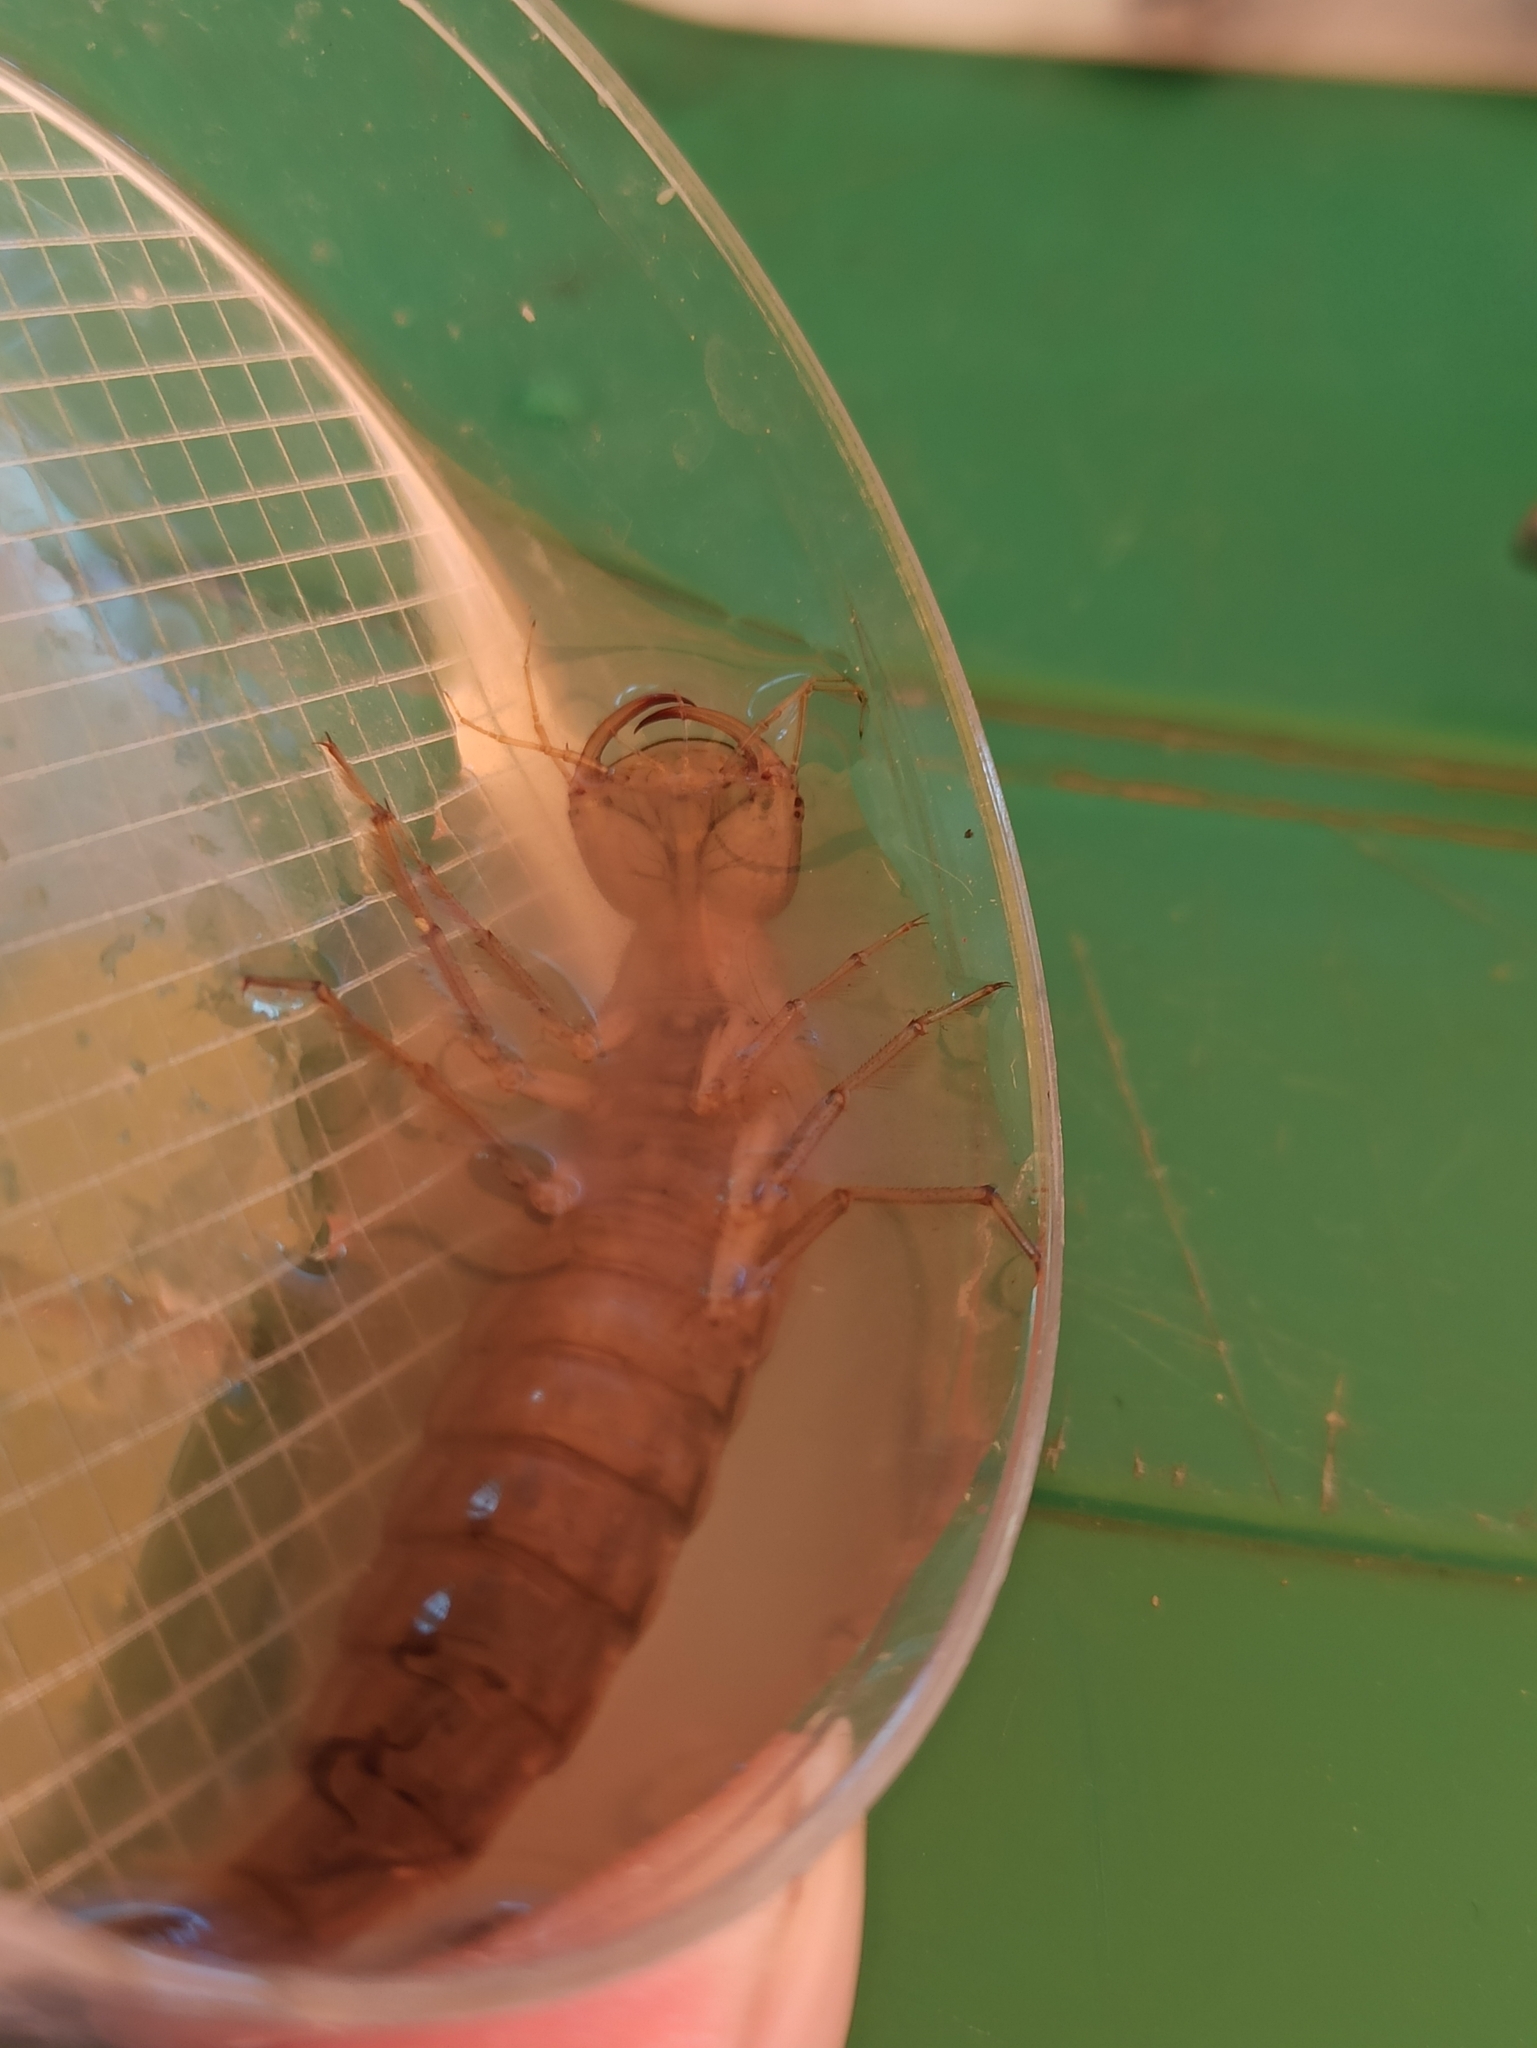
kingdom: Animalia
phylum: Arthropoda
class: Insecta
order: Coleoptera
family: Dytiscidae
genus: Dytiscus
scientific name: Dytiscus
